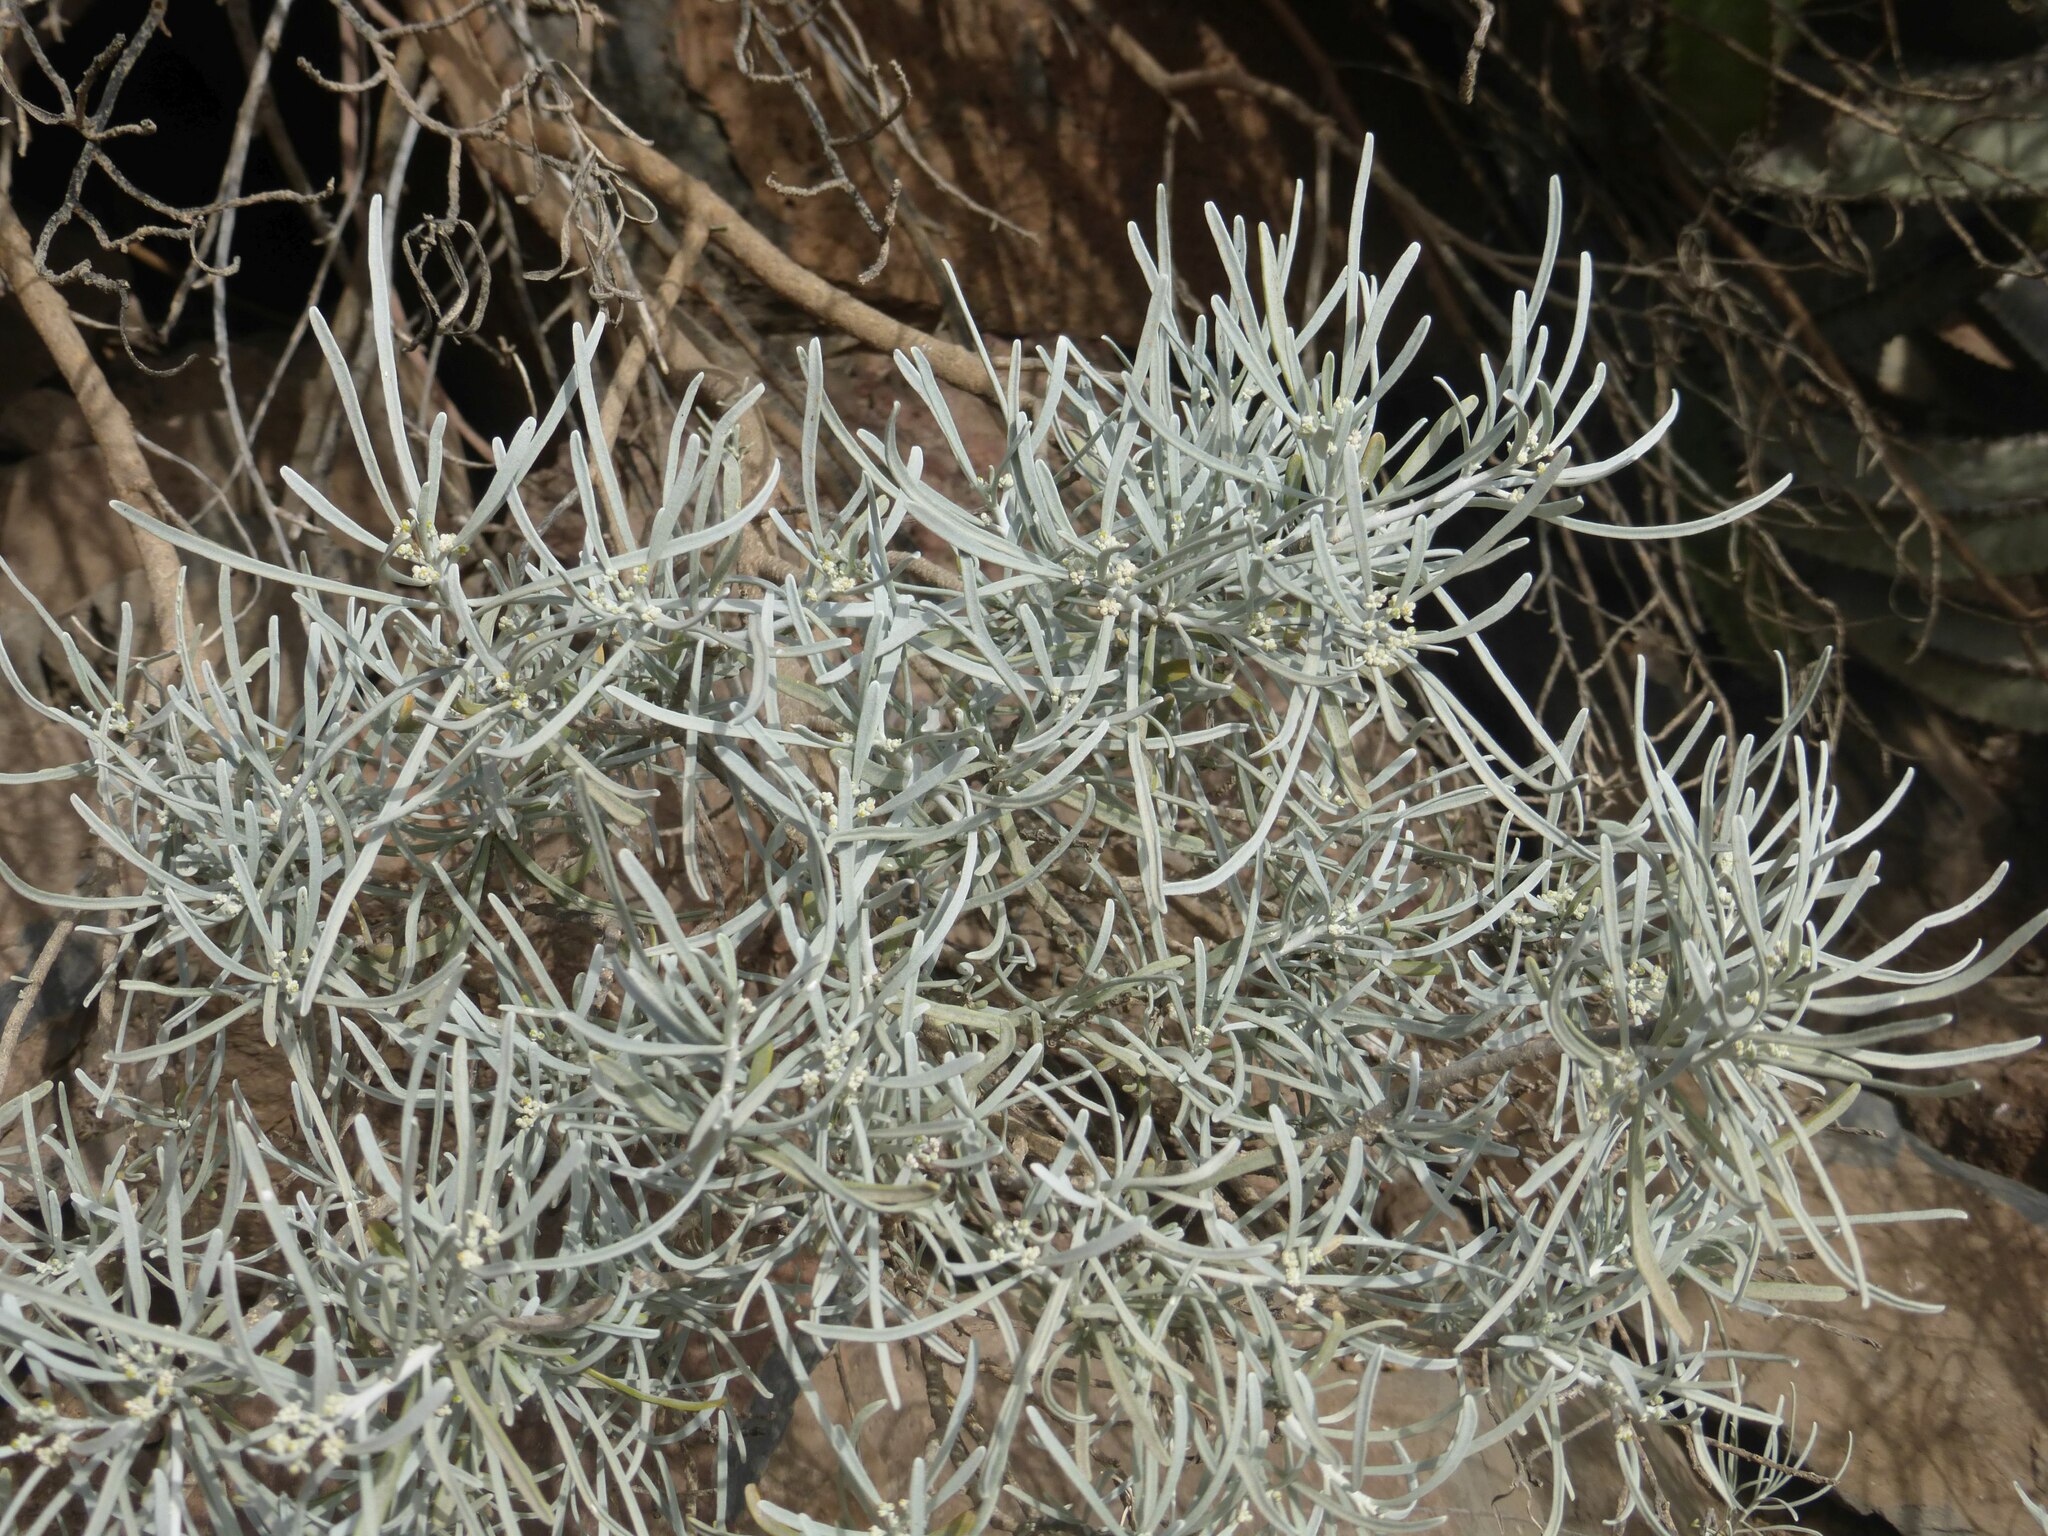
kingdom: Plantae
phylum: Tracheophyta
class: Magnoliopsida
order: Sapindales
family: Rutaceae
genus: Cneorum
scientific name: Cneorum pulverulentum
